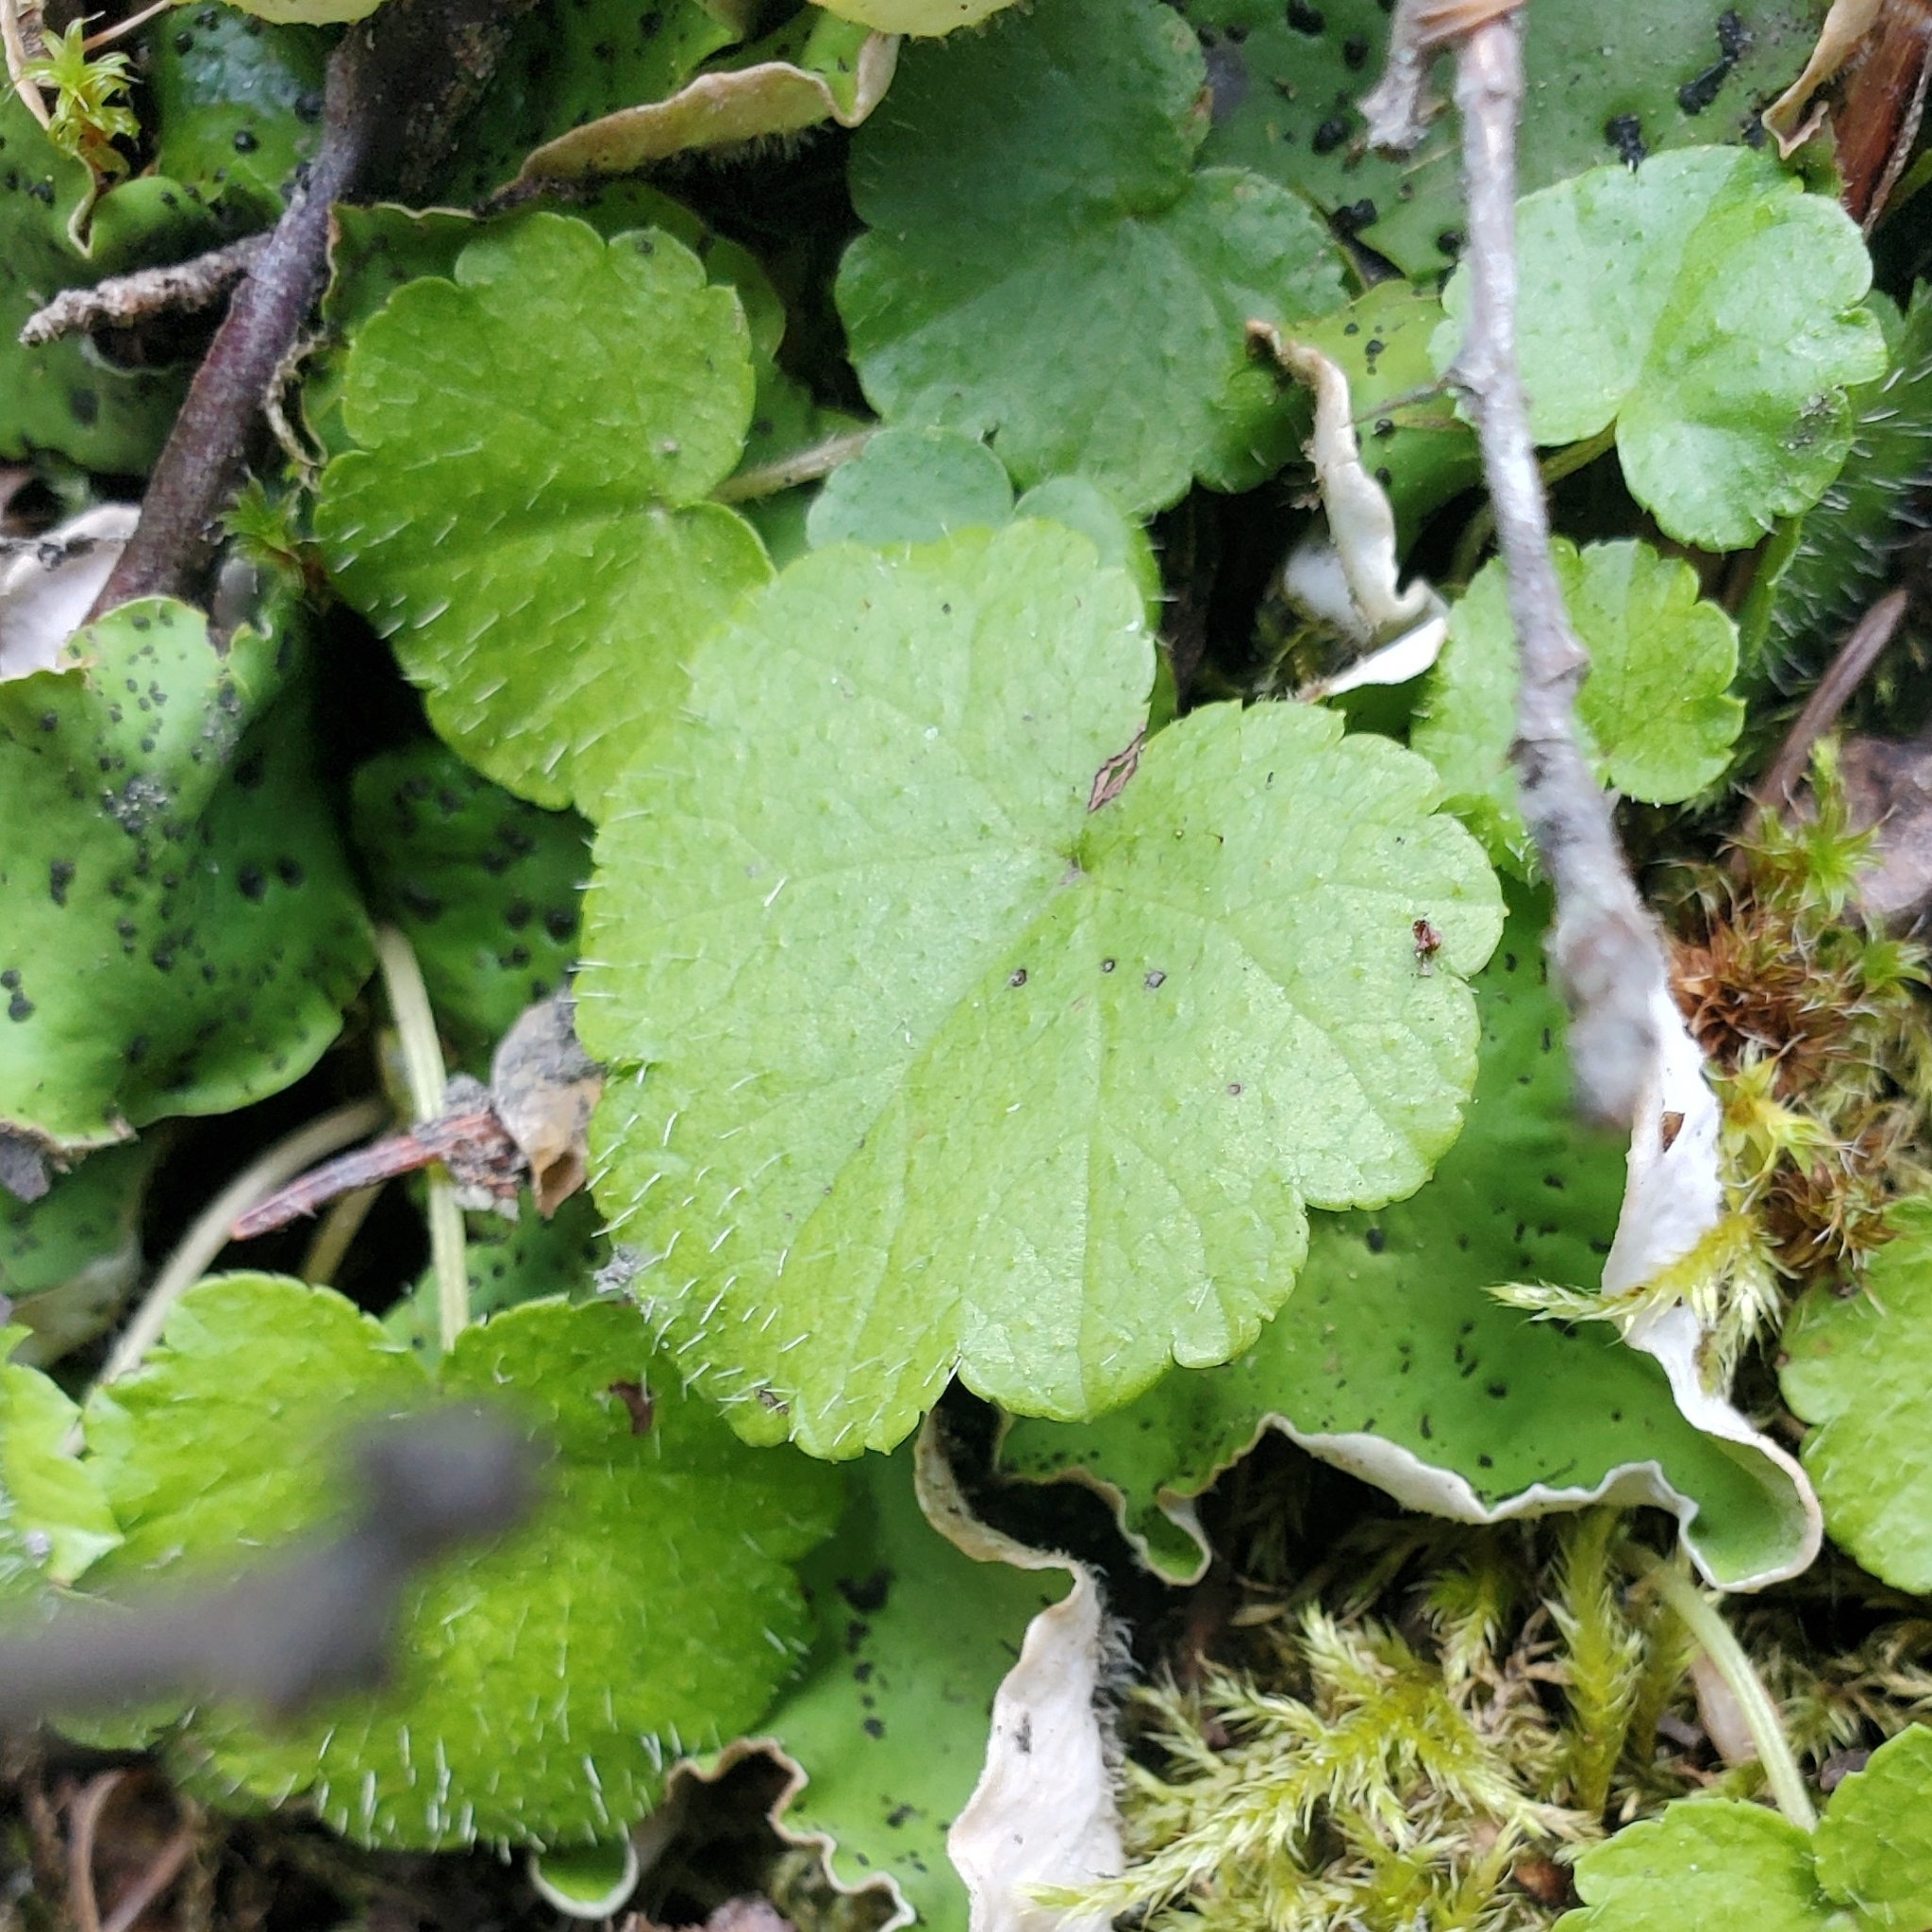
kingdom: Plantae
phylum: Tracheophyta
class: Magnoliopsida
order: Saxifragales
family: Saxifragaceae
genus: Mitella
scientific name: Mitella nuda
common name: Bare-stemmed bishop's-cap
